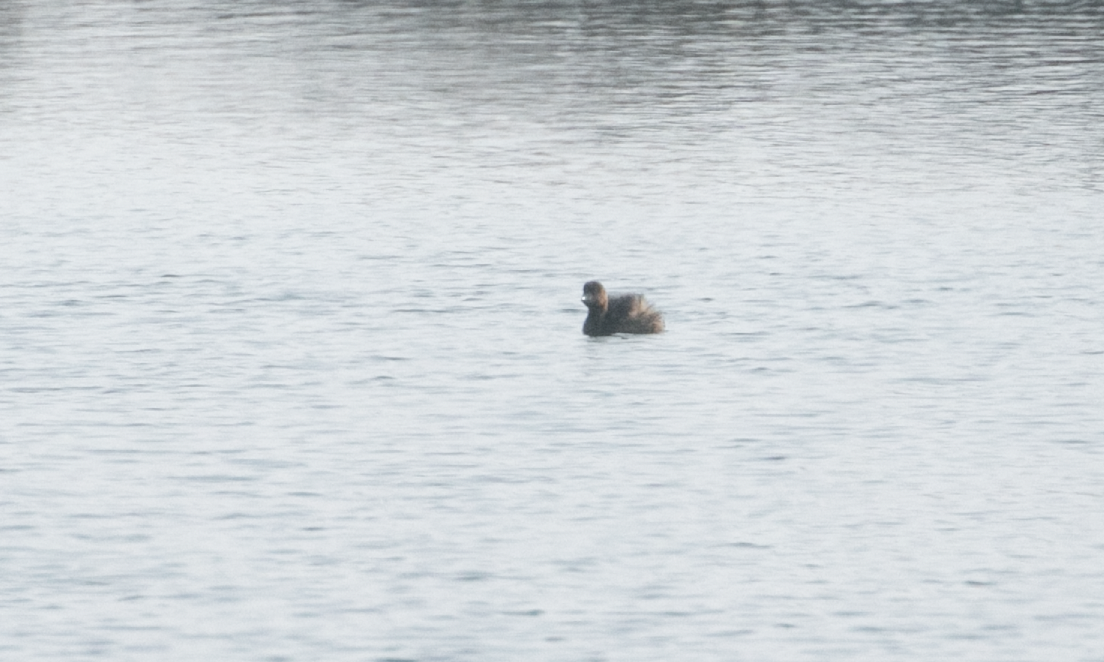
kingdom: Animalia
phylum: Chordata
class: Aves
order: Podicipediformes
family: Podicipedidae
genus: Tachybaptus
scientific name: Tachybaptus ruficollis
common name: Little grebe
